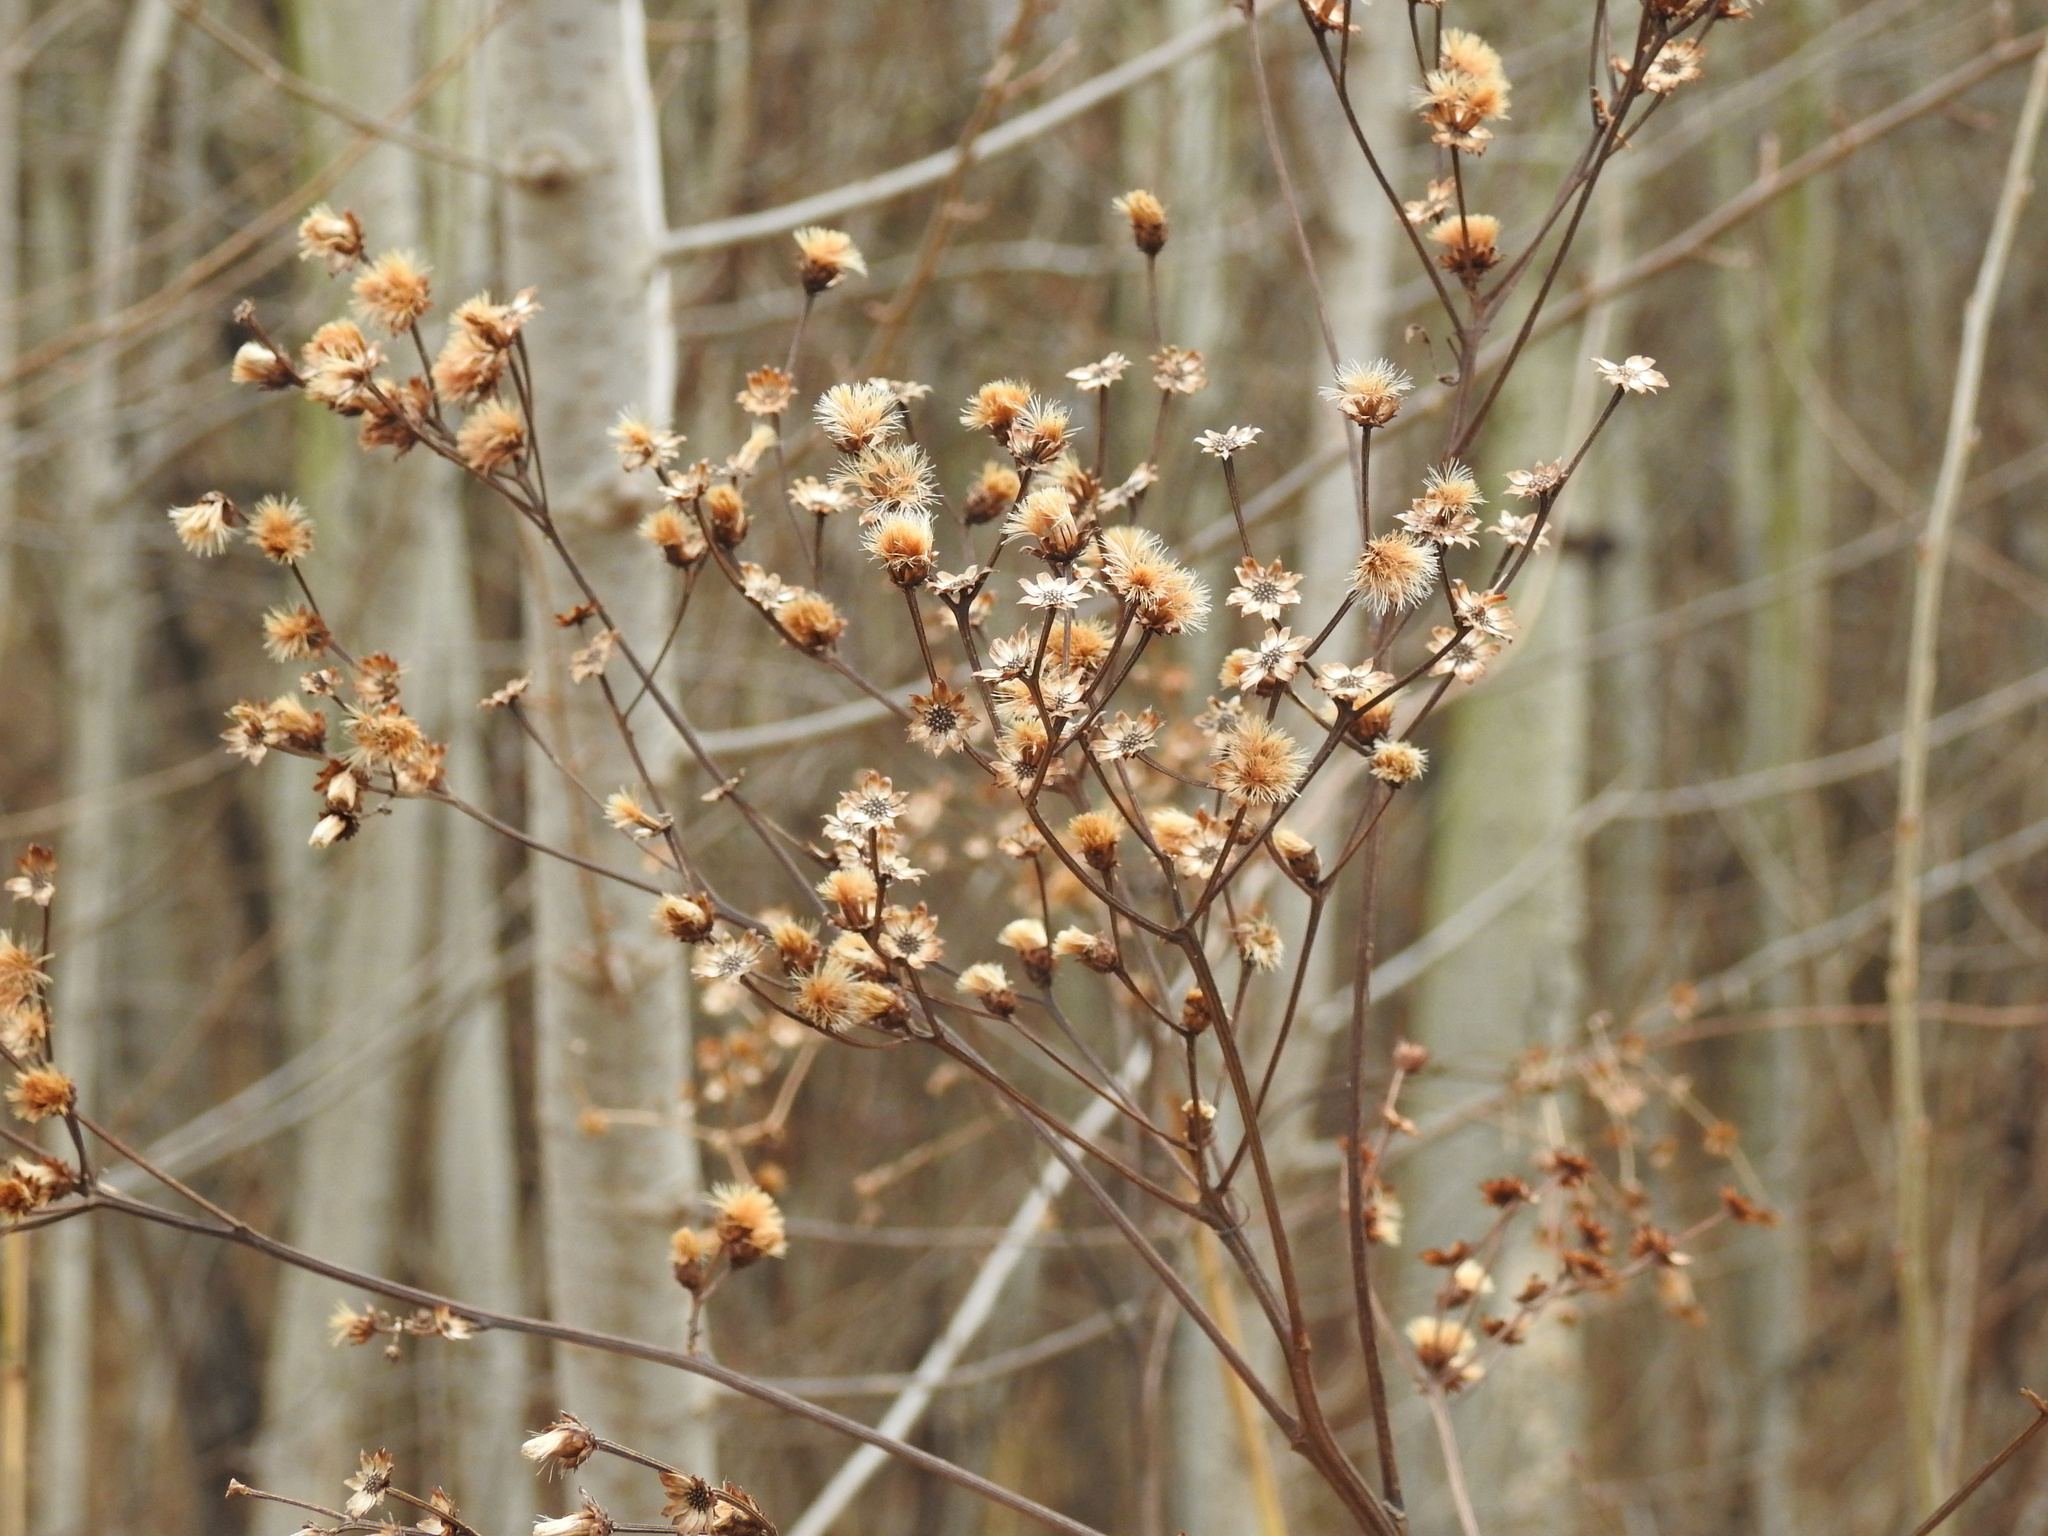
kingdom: Plantae
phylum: Tracheophyta
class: Magnoliopsida
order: Asterales
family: Asteraceae
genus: Vernonia
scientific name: Vernonia noveboracensis
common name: New york ironweed
